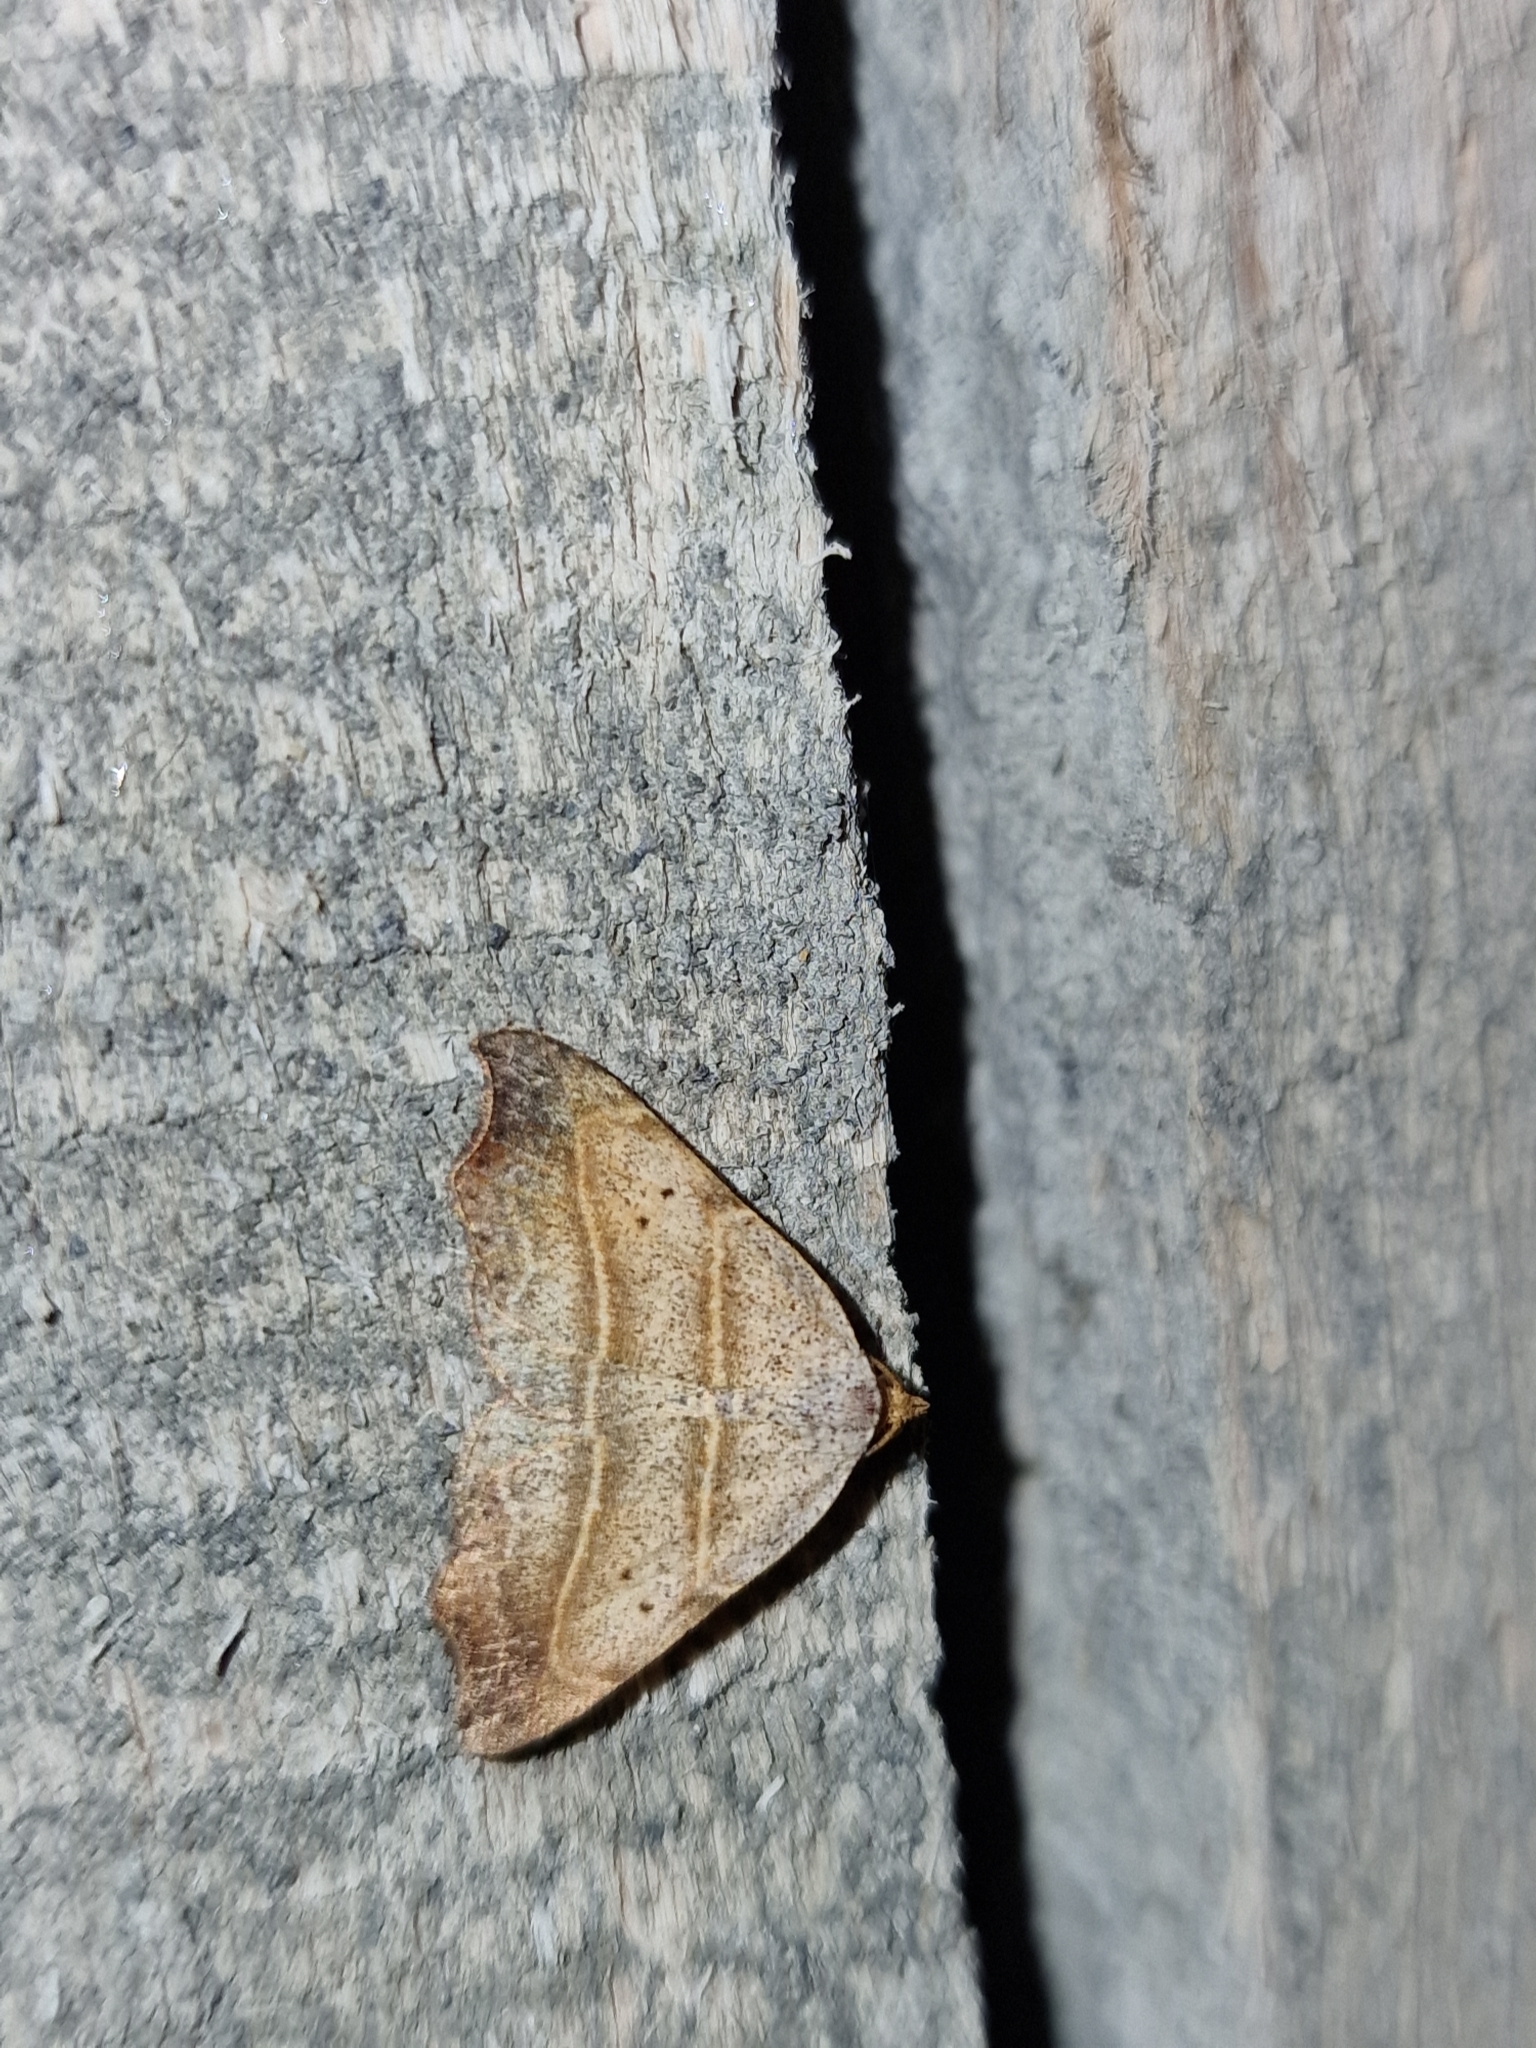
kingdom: Animalia
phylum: Arthropoda
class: Insecta
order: Lepidoptera
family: Erebidae
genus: Laspeyria
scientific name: Laspeyria flexula
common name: Beautiful hook-tip
